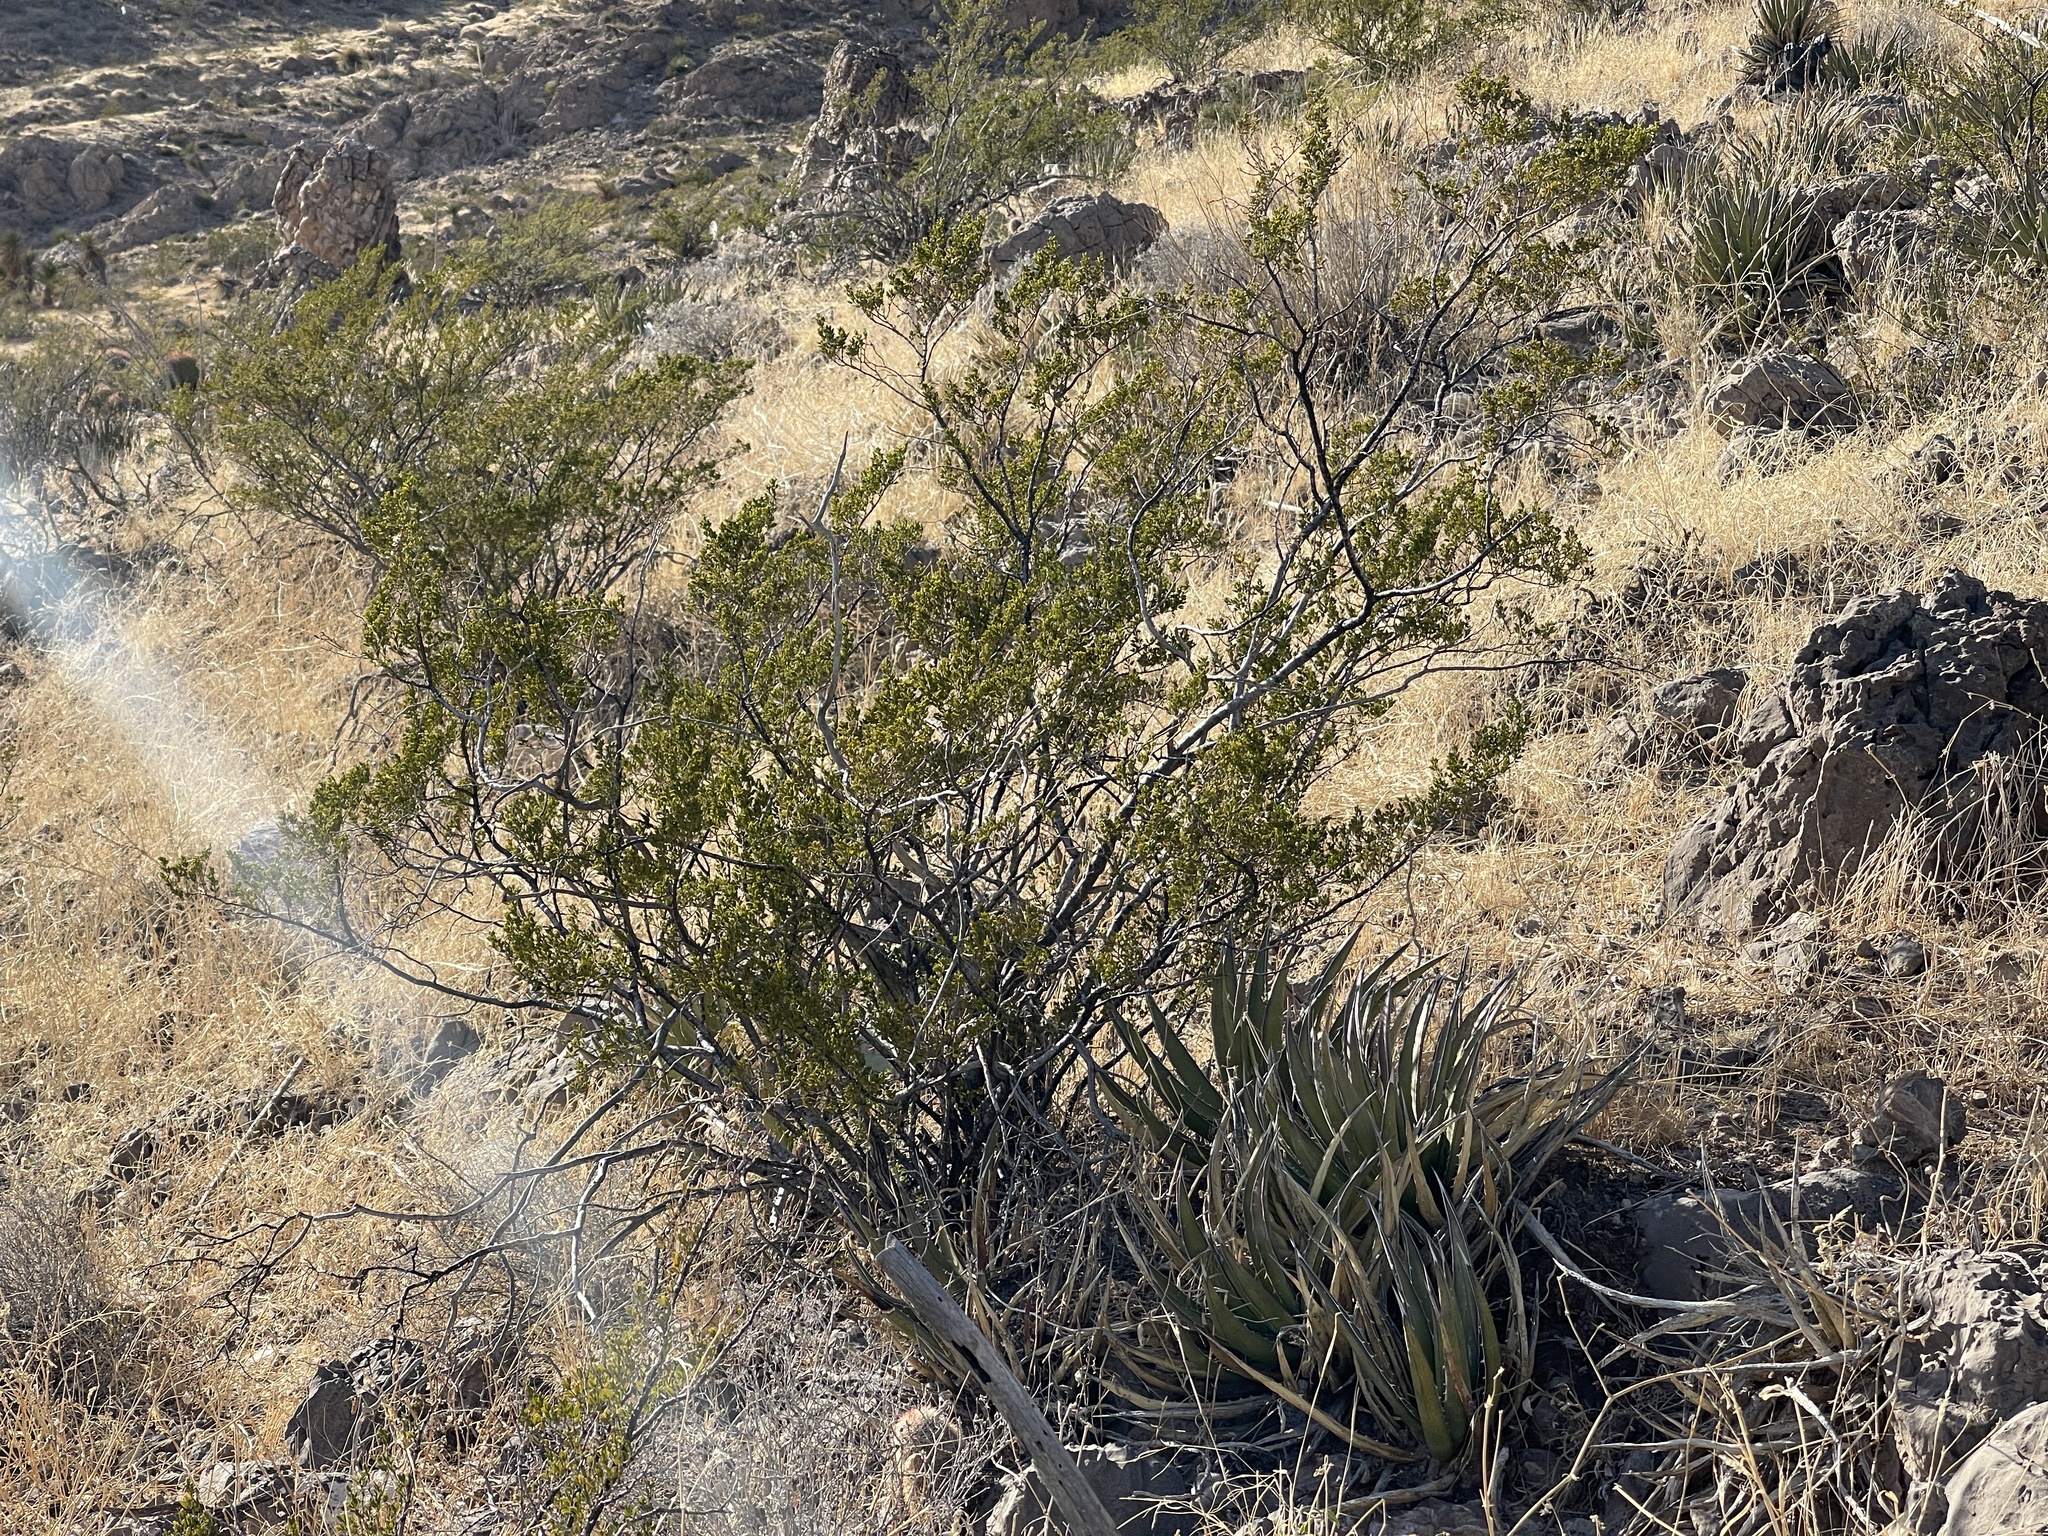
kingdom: Plantae
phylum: Tracheophyta
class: Magnoliopsida
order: Zygophyllales
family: Zygophyllaceae
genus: Larrea
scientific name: Larrea tridentata
